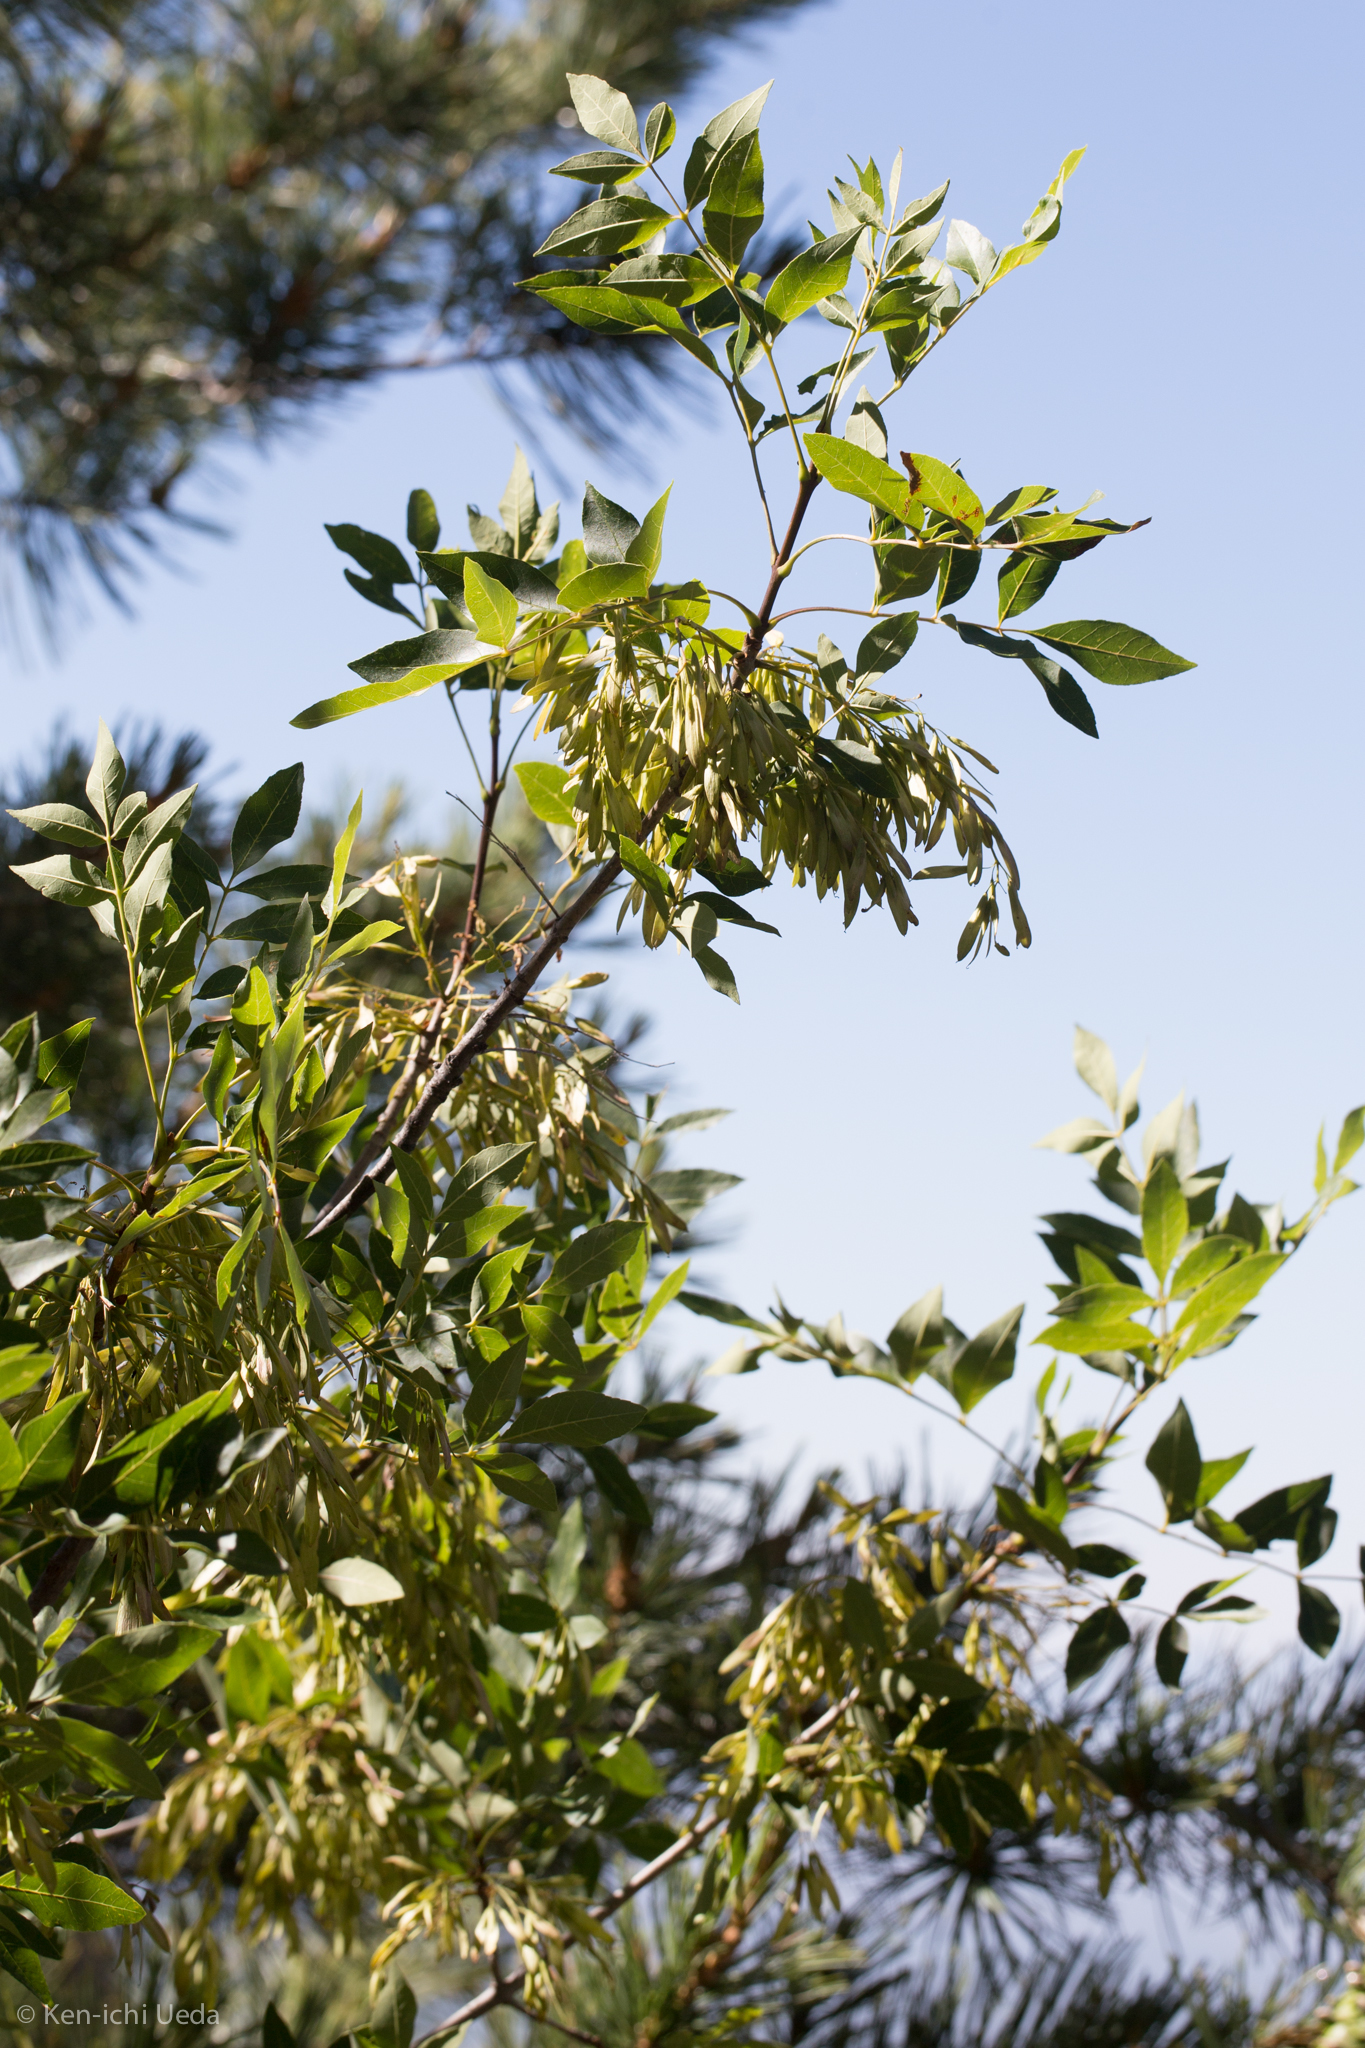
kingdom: Plantae
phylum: Tracheophyta
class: Magnoliopsida
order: Lamiales
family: Oleaceae
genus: Fraxinus
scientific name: Fraxinus velutina
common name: Arizon ash
